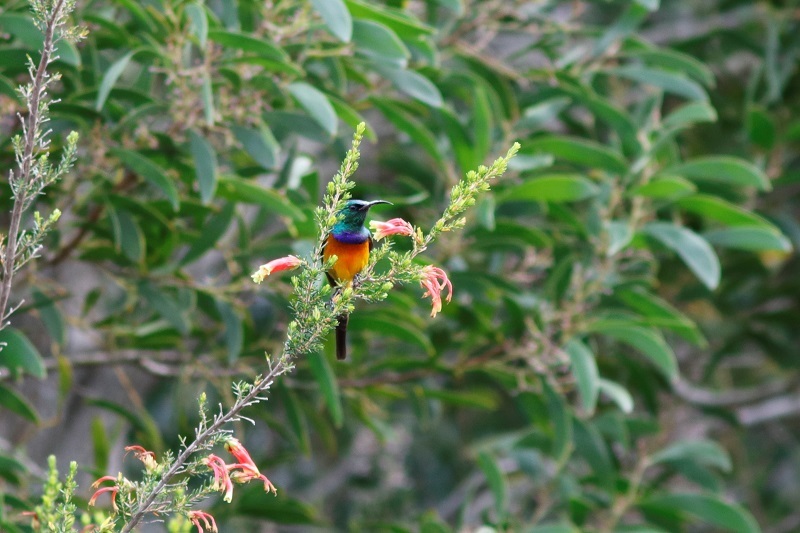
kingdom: Animalia
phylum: Chordata
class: Aves
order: Passeriformes
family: Nectariniidae
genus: Anthobaphes
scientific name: Anthobaphes violacea
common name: Orange-breasted sunbird
